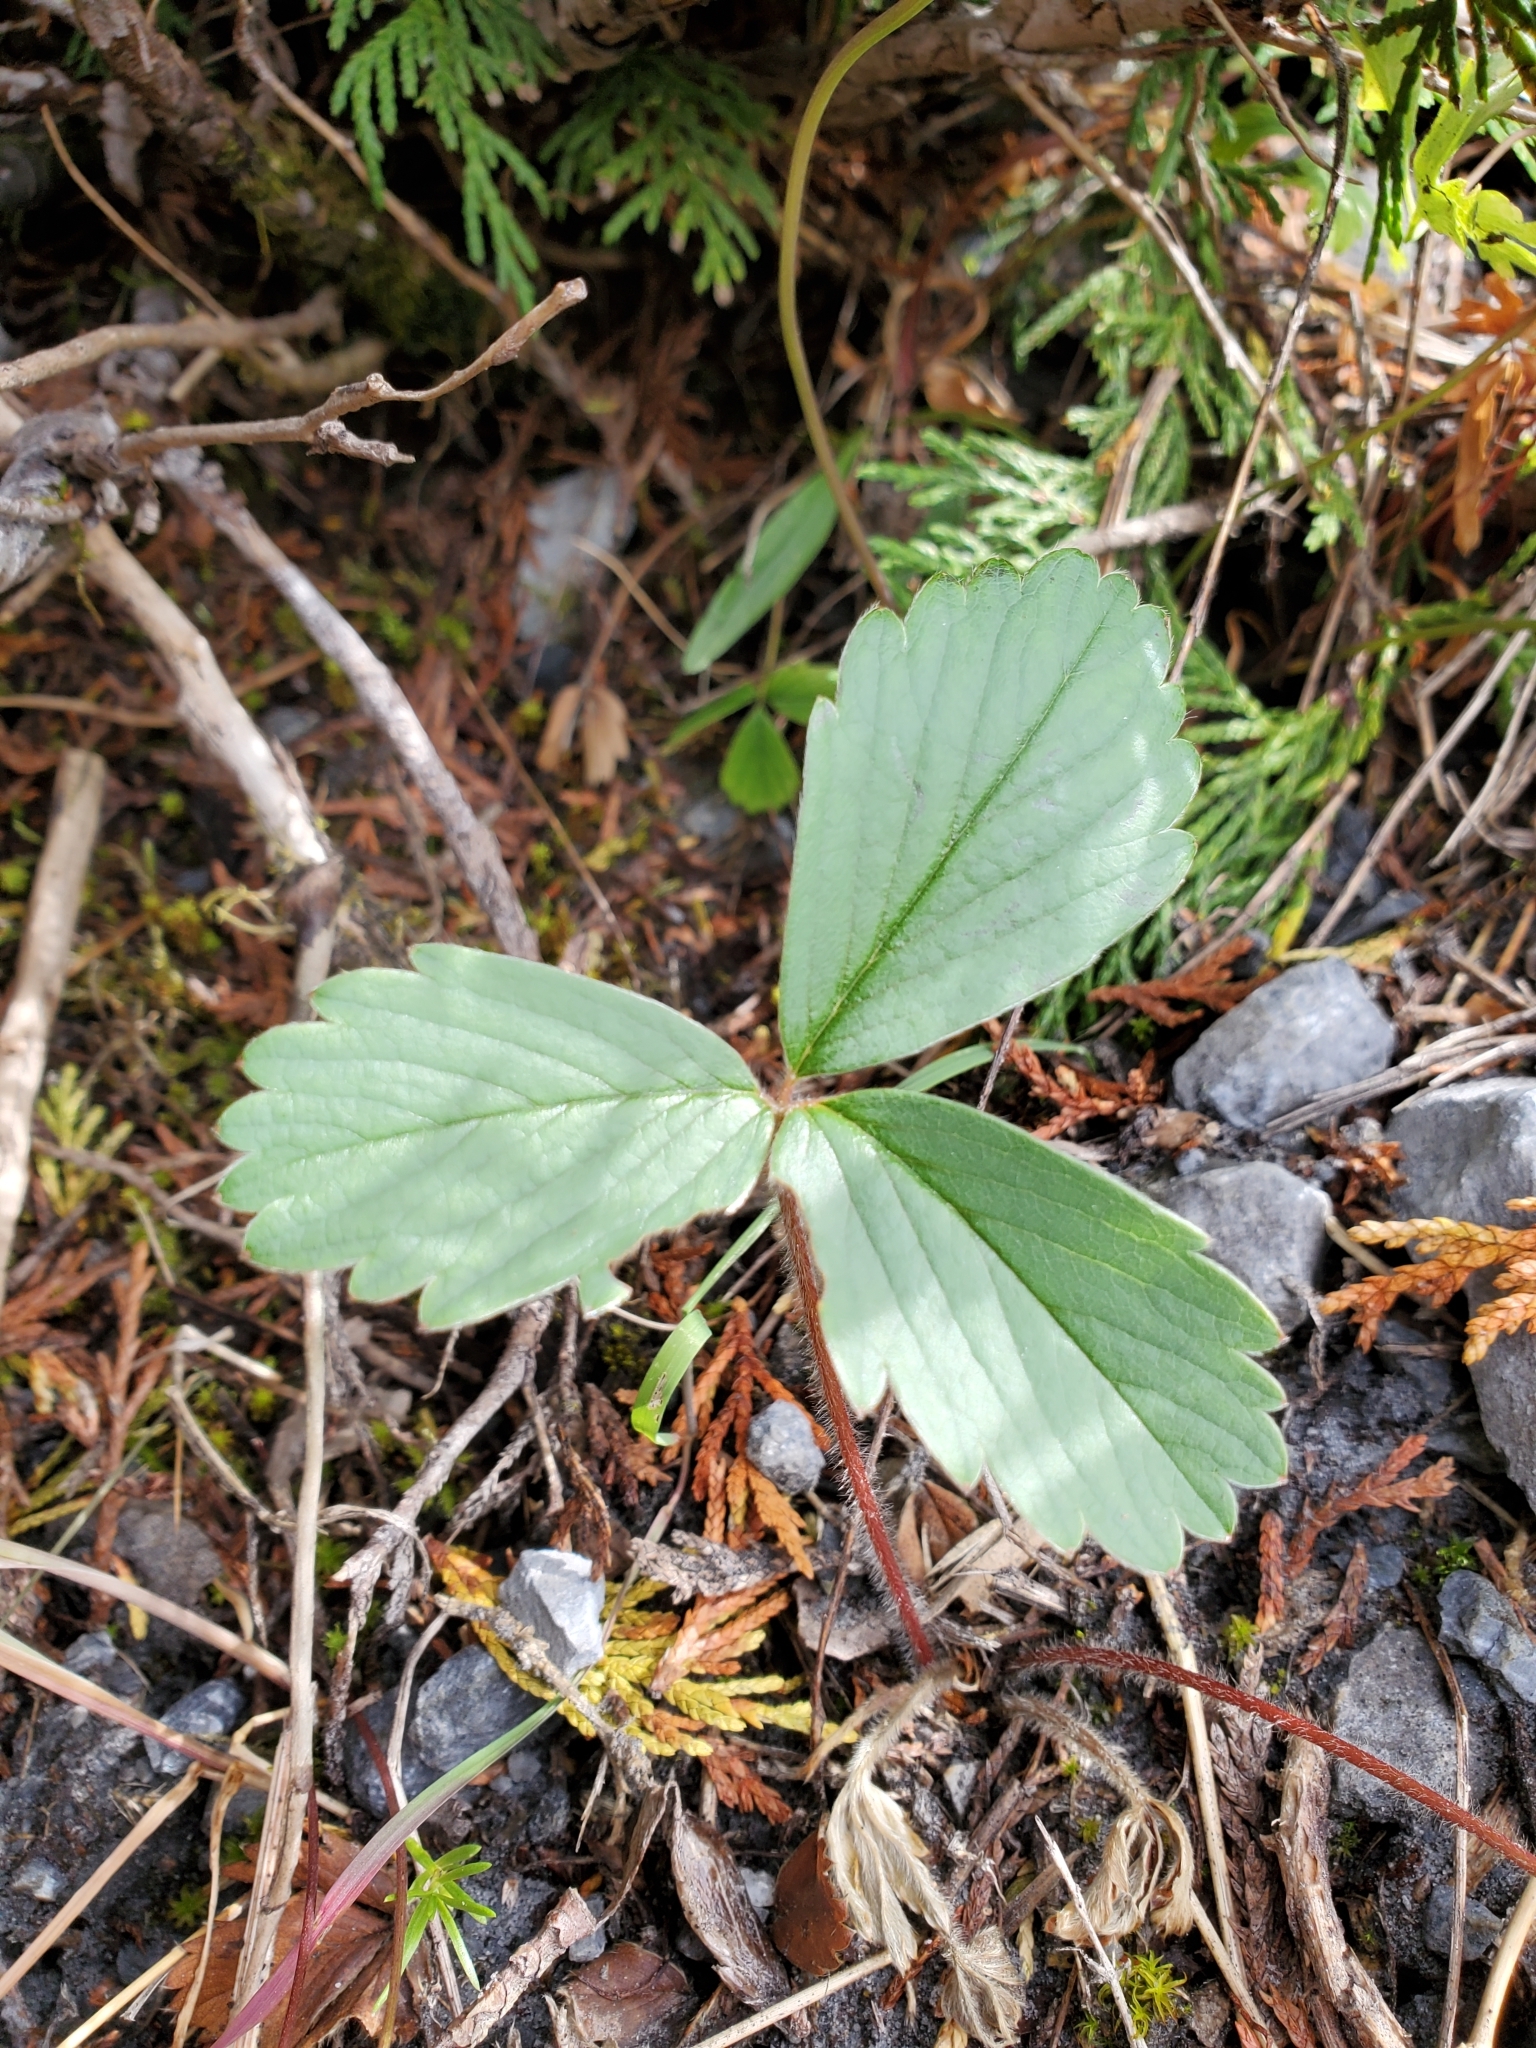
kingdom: Plantae
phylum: Tracheophyta
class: Magnoliopsida
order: Rosales
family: Rosaceae
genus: Fragaria
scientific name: Fragaria virginiana
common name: Thickleaved wild strawberry
